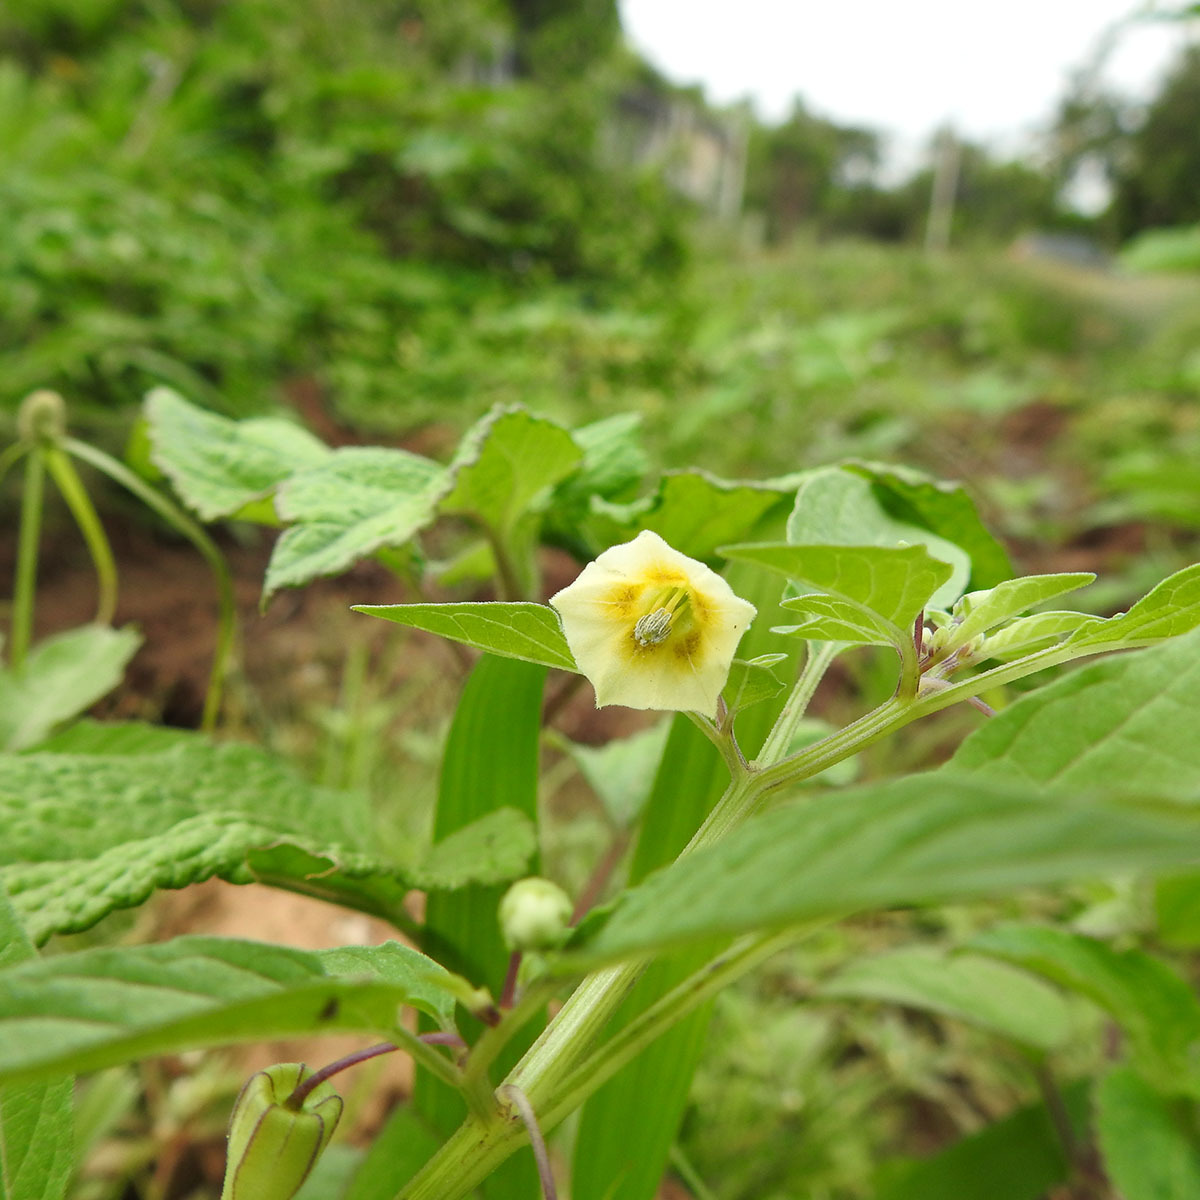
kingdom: Plantae
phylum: Tracheophyta
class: Magnoliopsida
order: Solanales
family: Solanaceae
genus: Physalis
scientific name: Physalis angulata
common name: Angular winter-cherry
